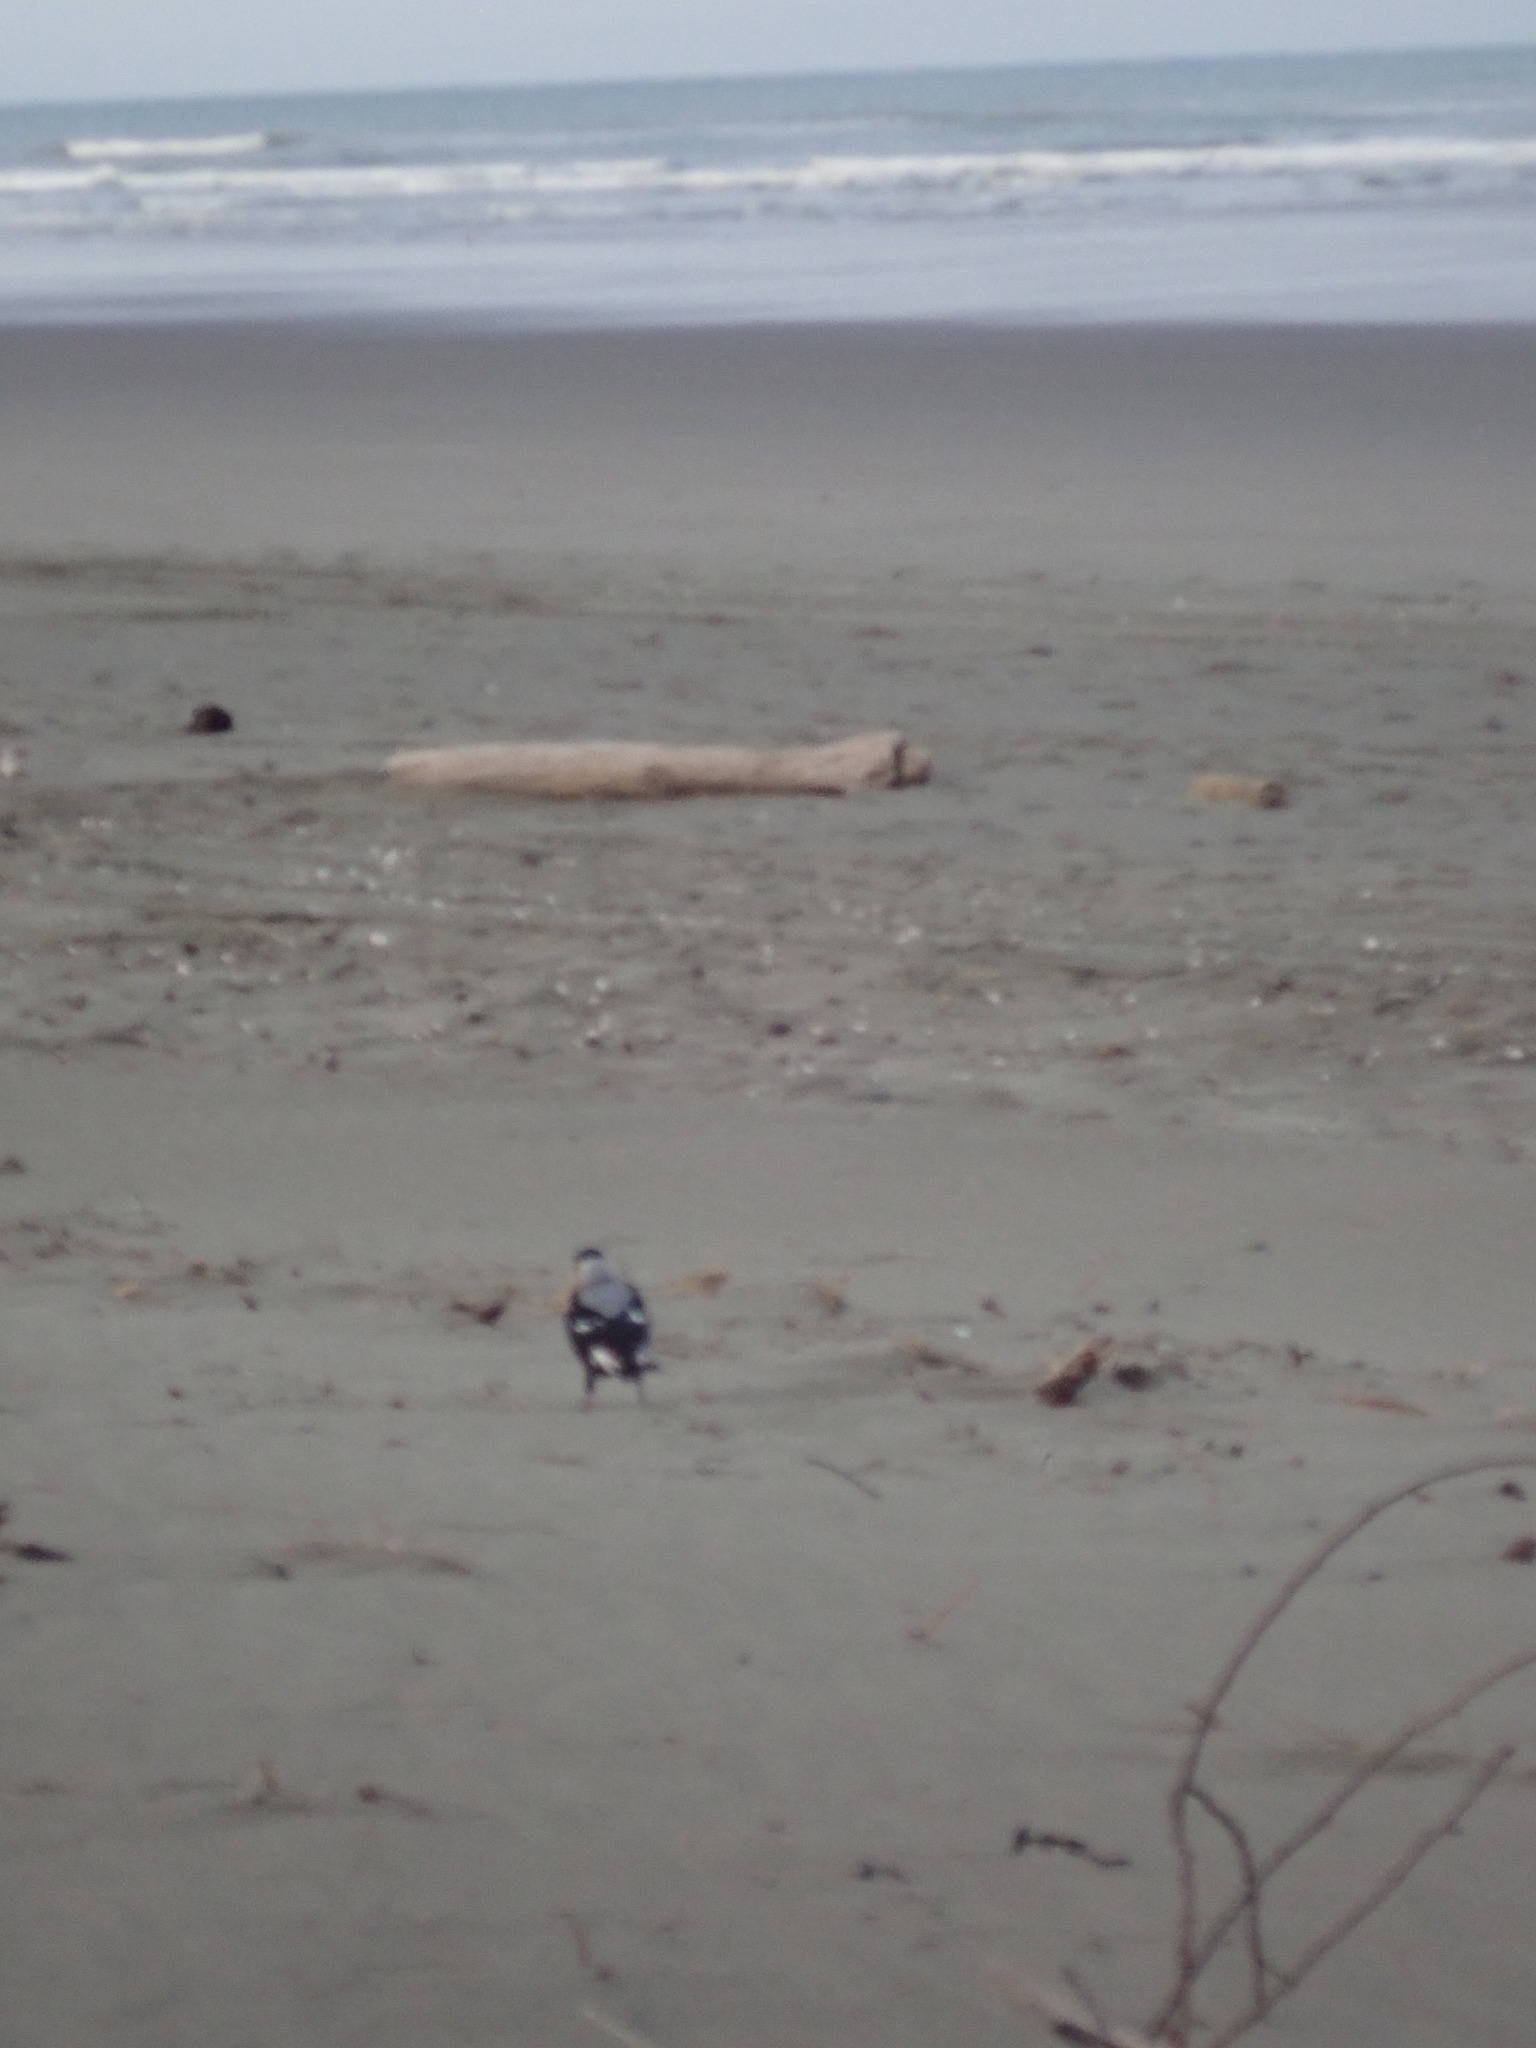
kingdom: Animalia
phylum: Chordata
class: Aves
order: Passeriformes
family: Cracticidae
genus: Gymnorhina
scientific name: Gymnorhina tibicen
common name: Australian magpie
